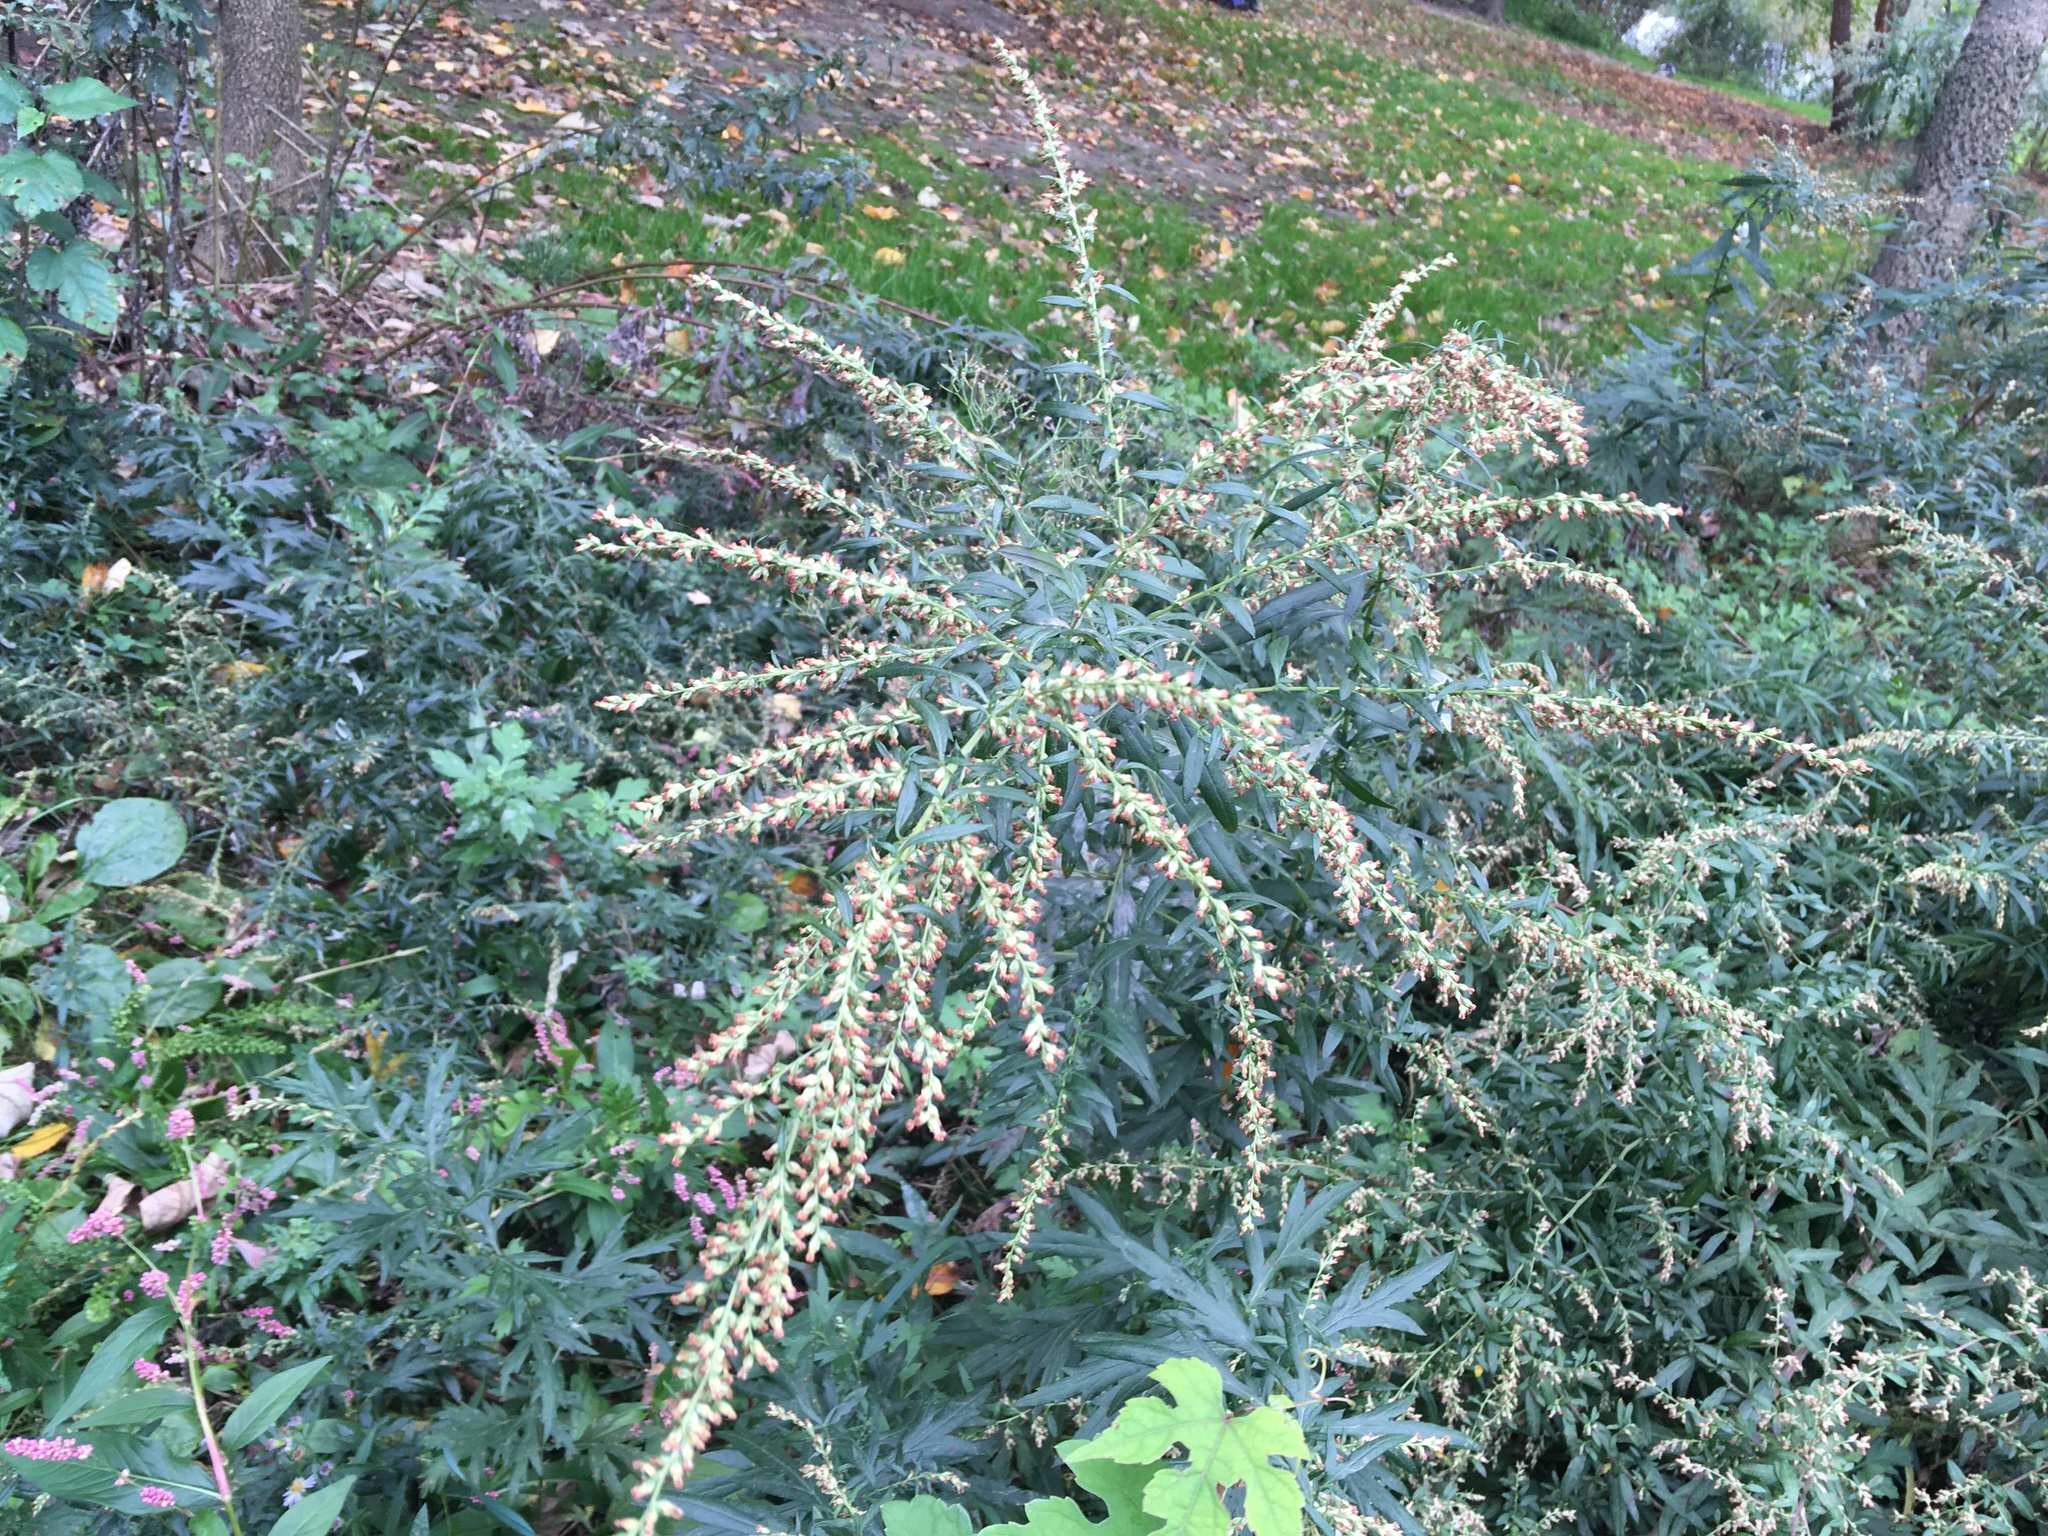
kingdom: Plantae
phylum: Tracheophyta
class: Magnoliopsida
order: Asterales
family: Asteraceae
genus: Artemisia
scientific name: Artemisia vulgaris
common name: Mugwort
